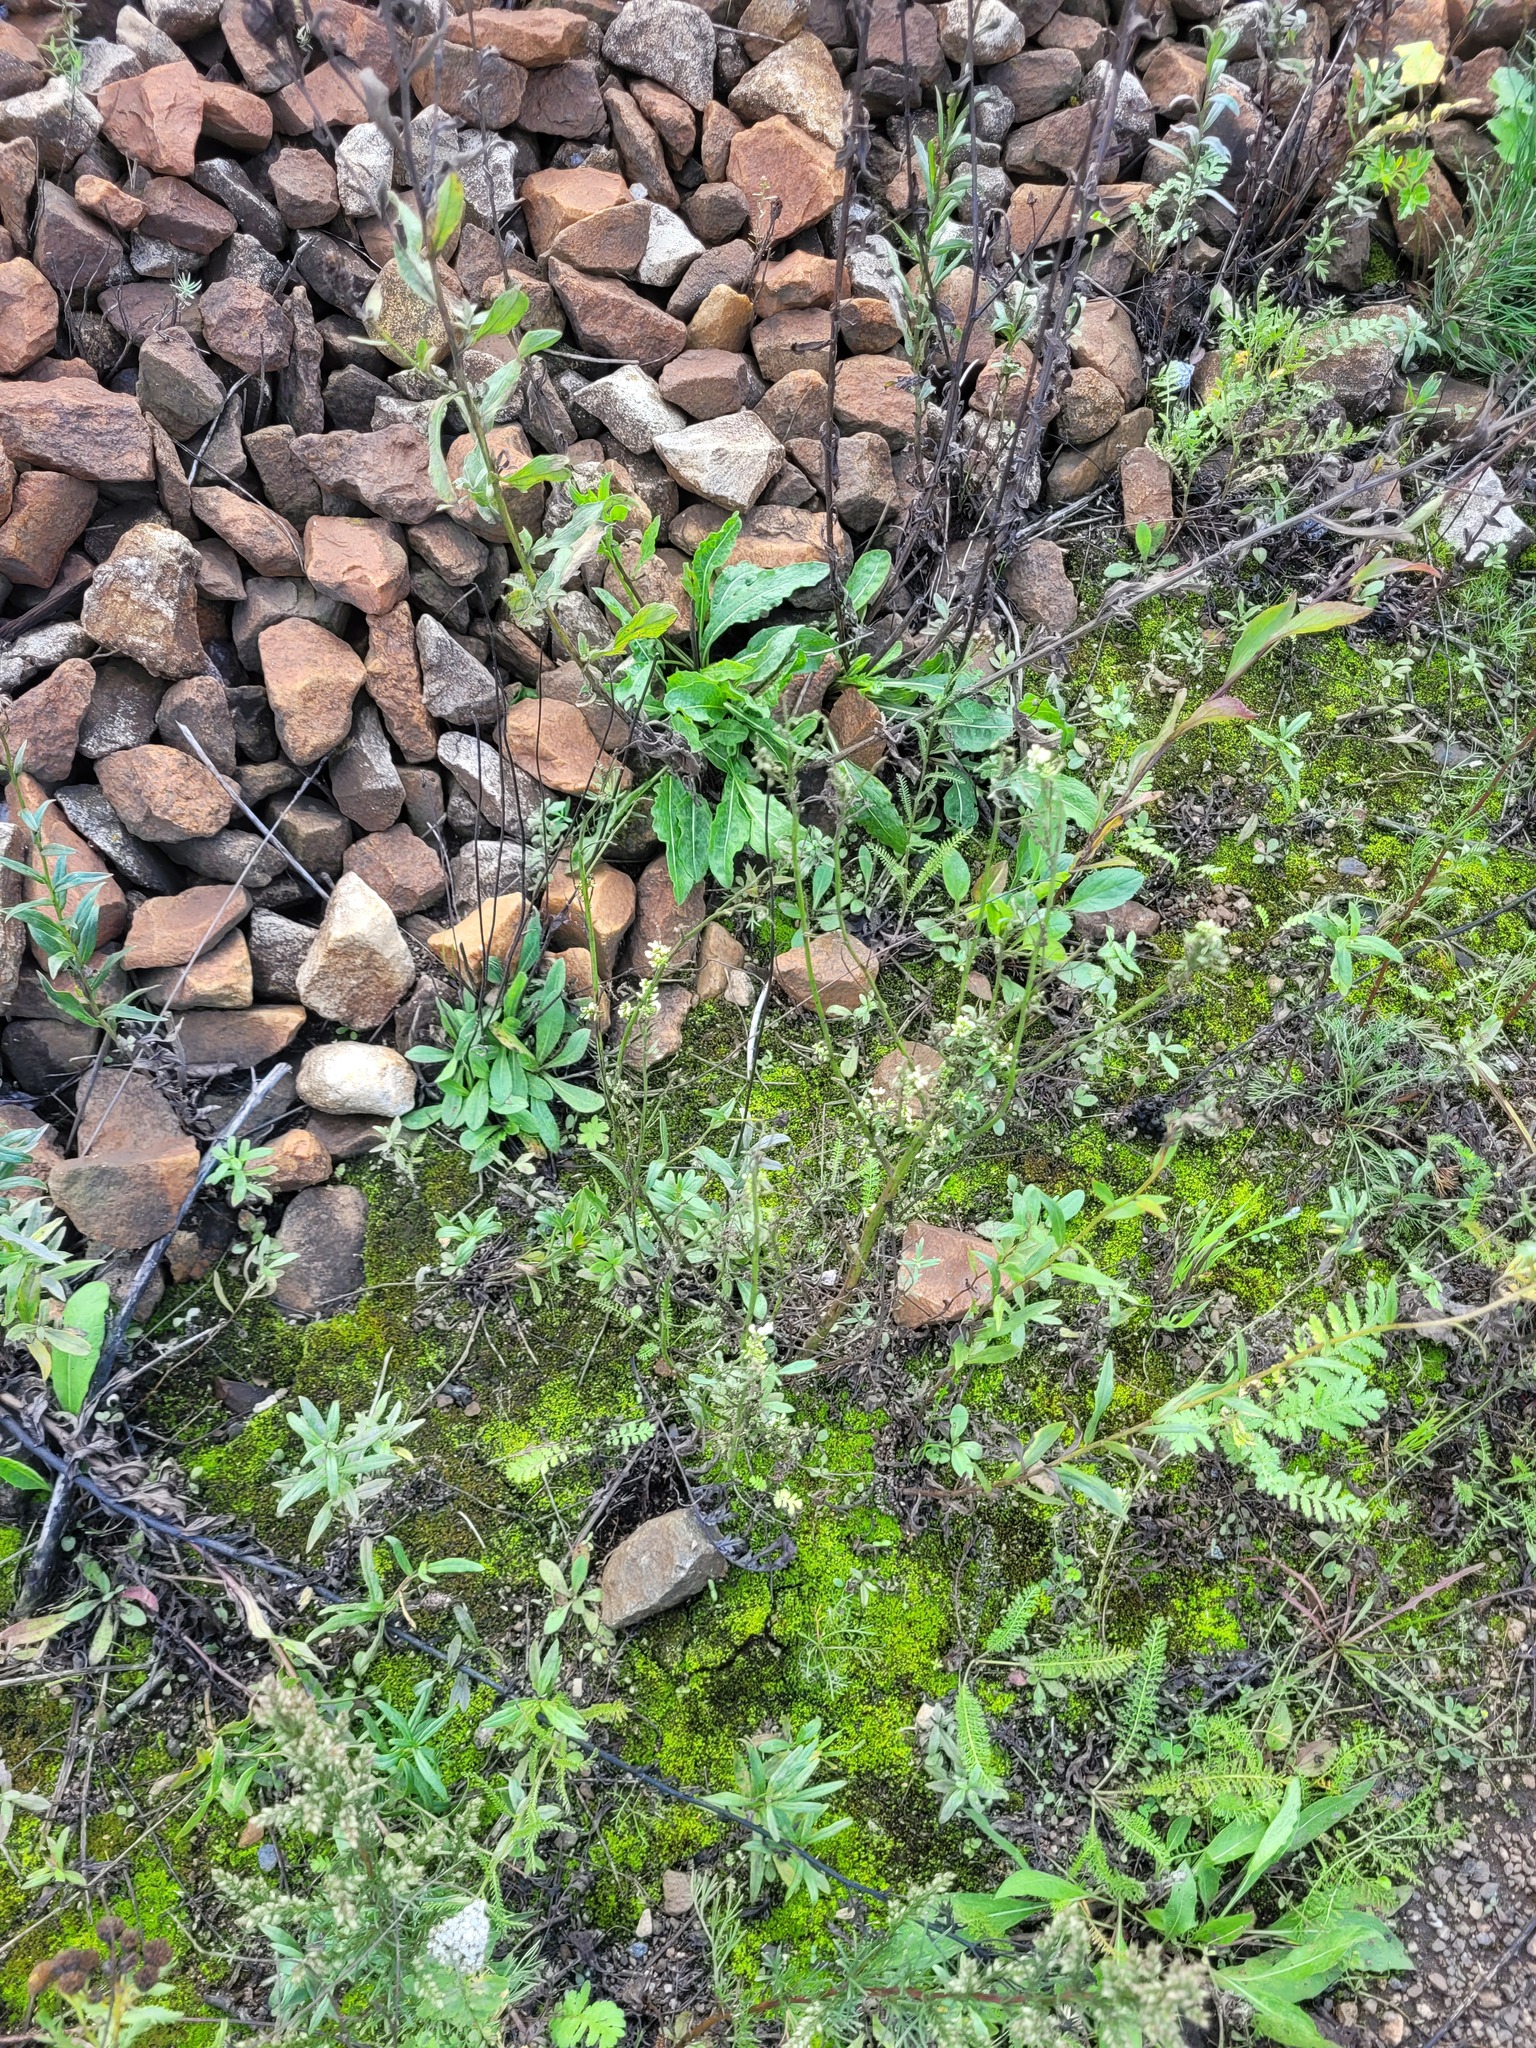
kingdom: Plantae
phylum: Tracheophyta
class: Magnoliopsida
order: Fabales
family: Fabaceae
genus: Melilotus
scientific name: Melilotus albus
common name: White melilot
